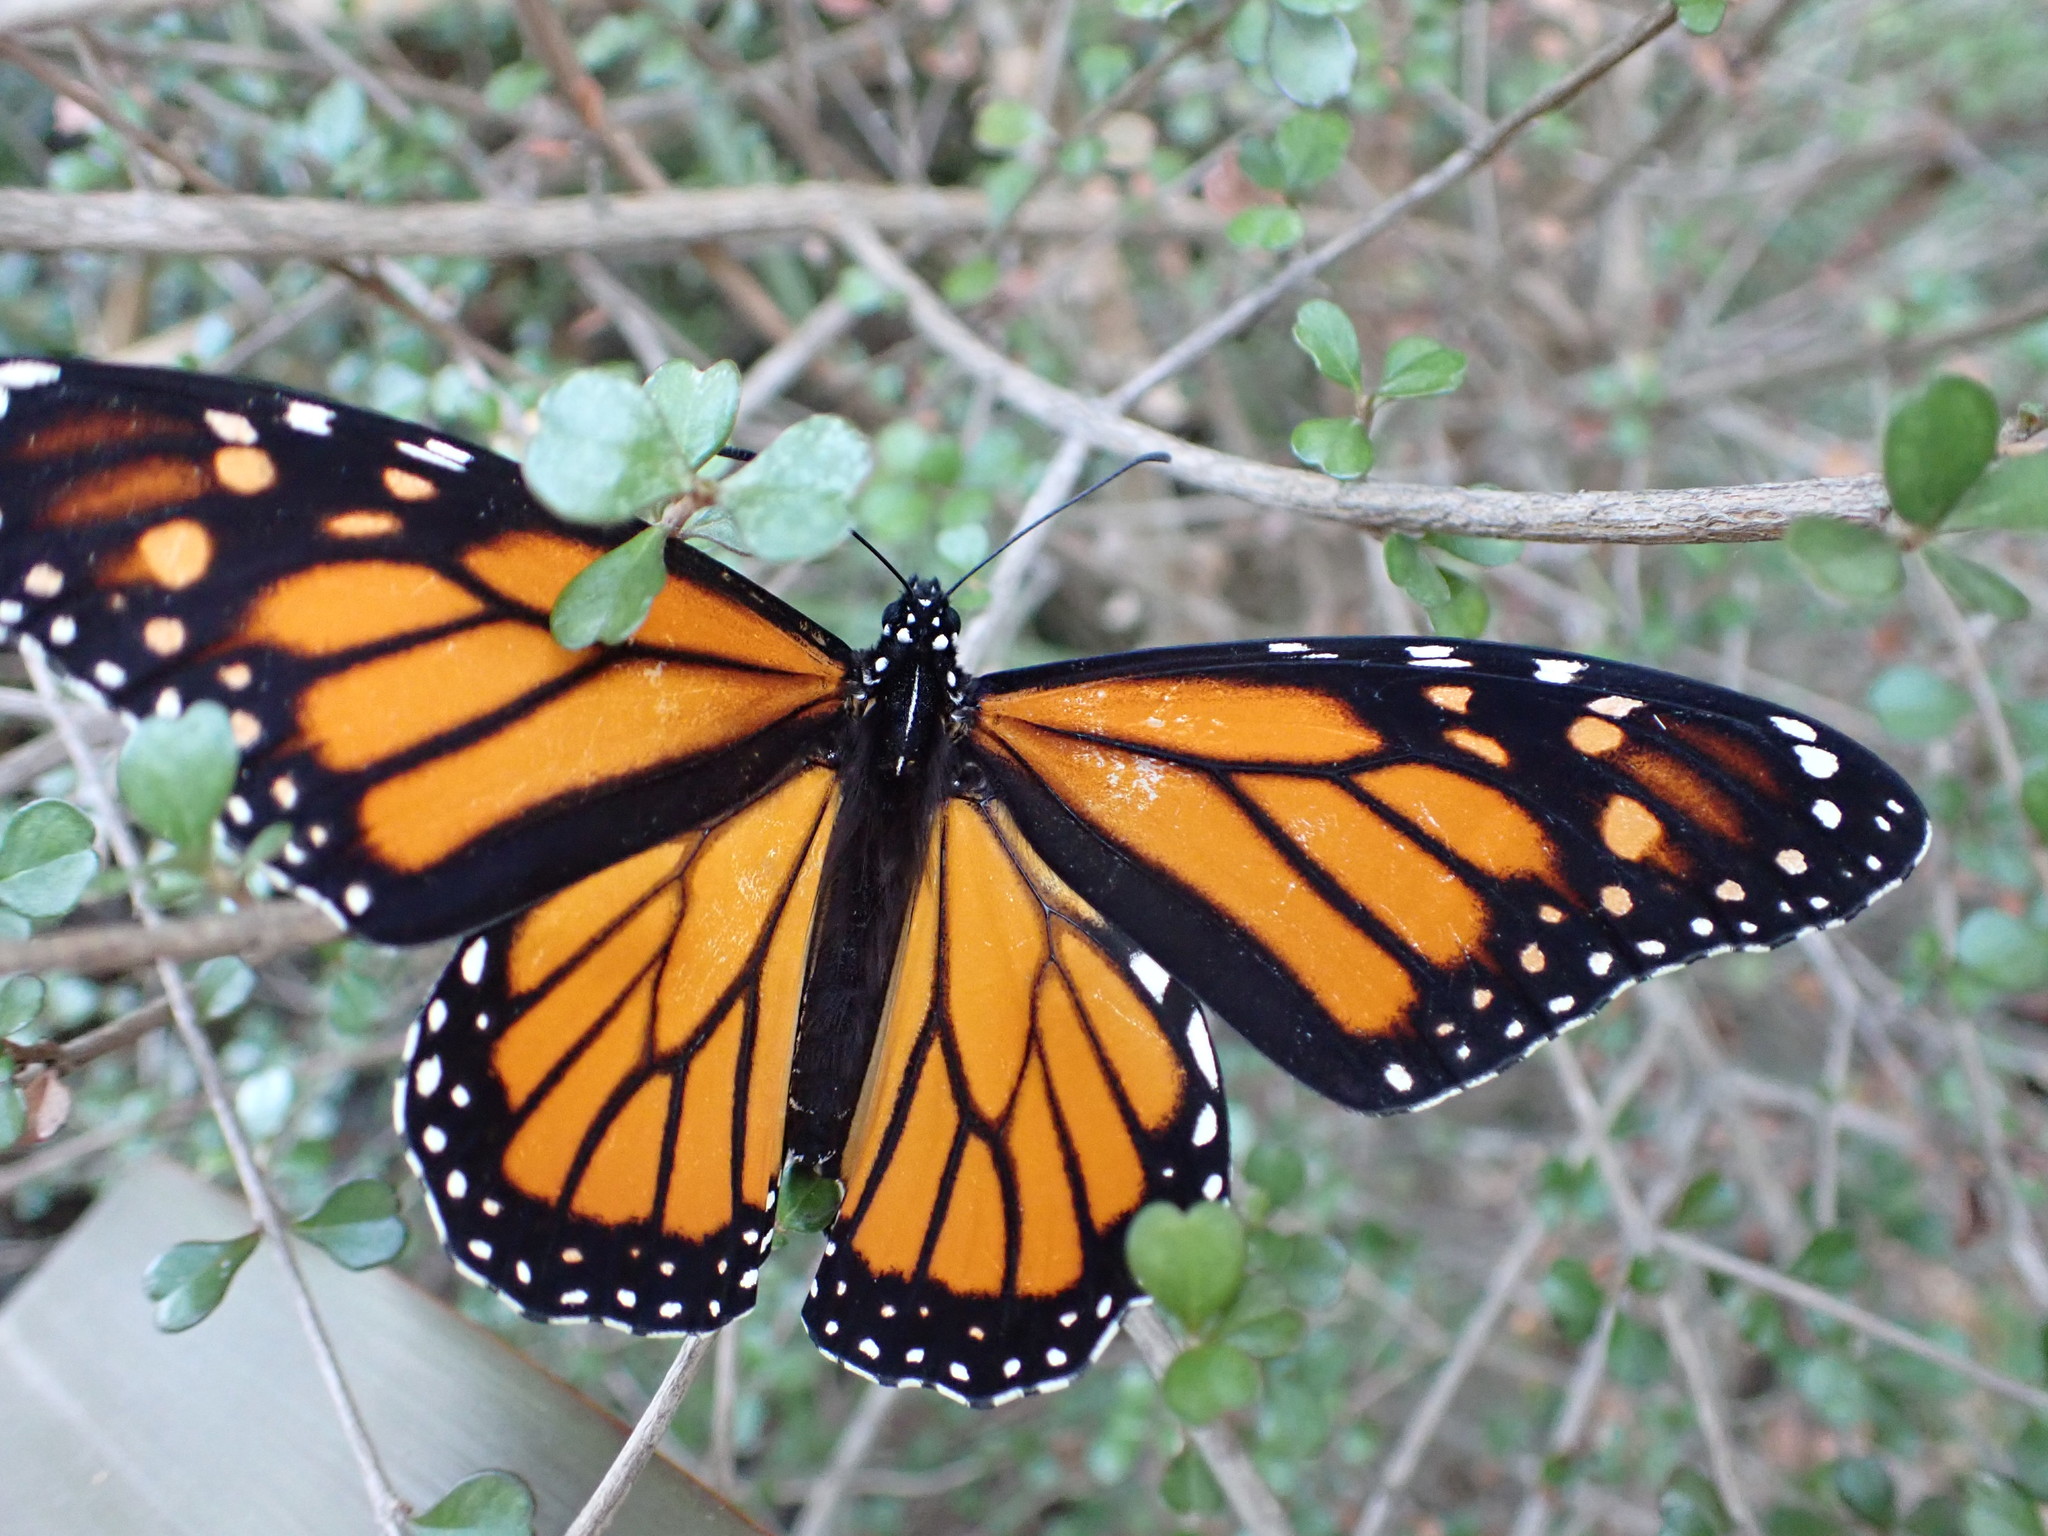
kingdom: Animalia
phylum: Arthropoda
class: Insecta
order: Lepidoptera
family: Nymphalidae
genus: Danaus
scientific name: Danaus plexippus
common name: Monarch
